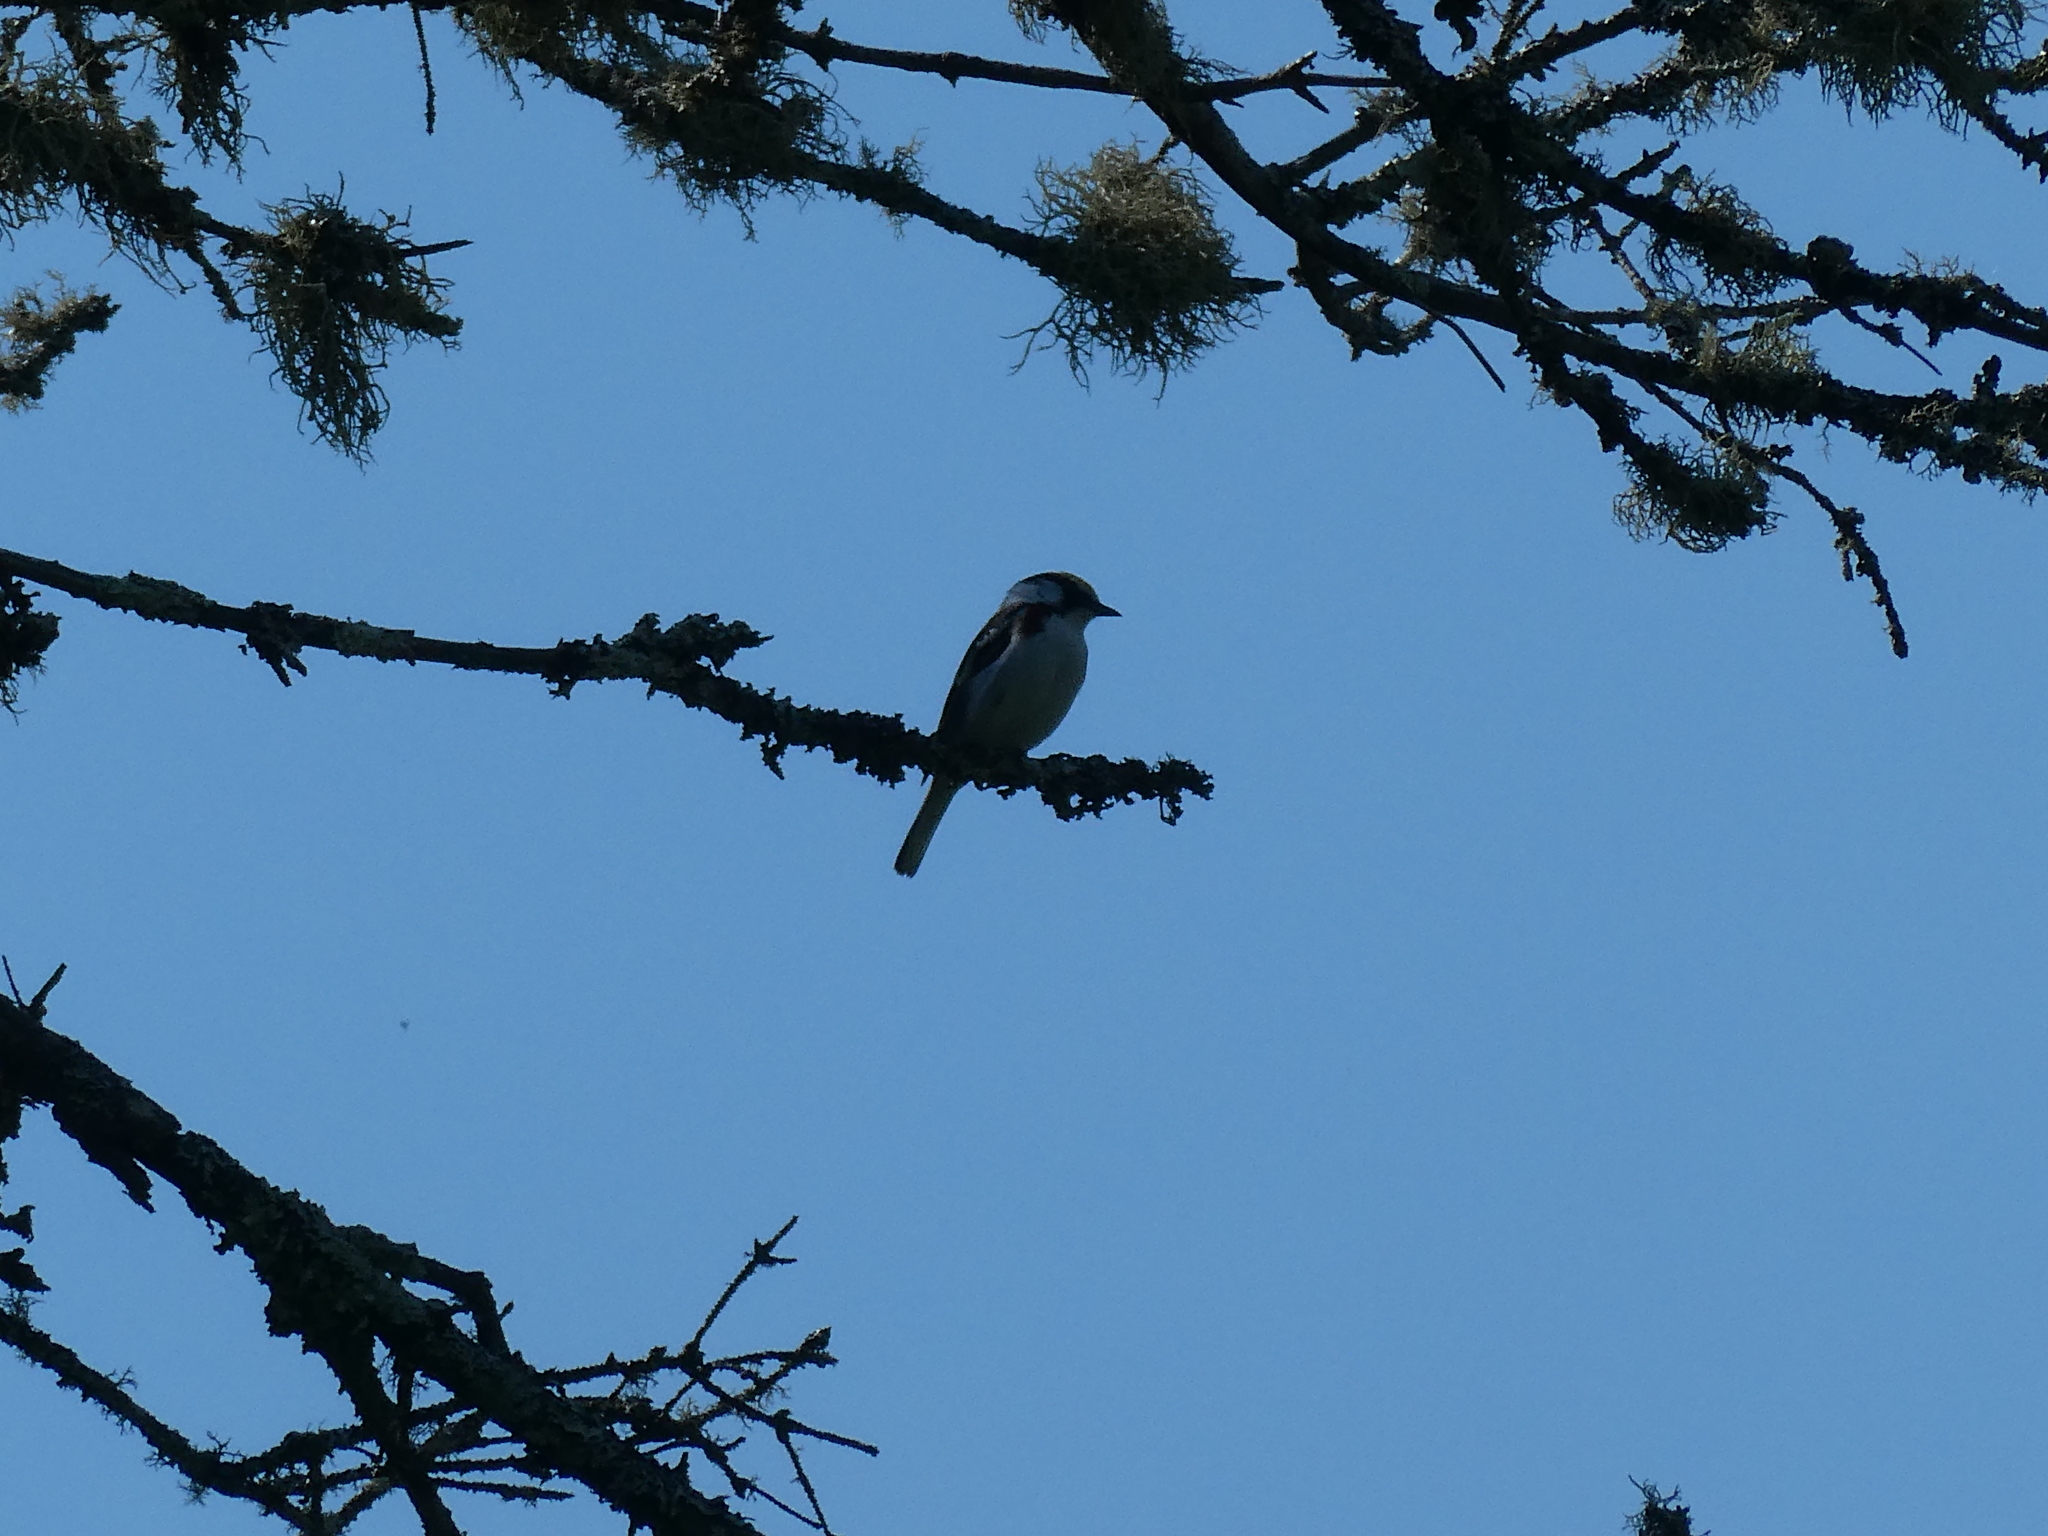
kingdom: Animalia
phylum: Chordata
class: Aves
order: Passeriformes
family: Parulidae
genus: Setophaga
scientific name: Setophaga pensylvanica
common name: Chestnut-sided warbler
